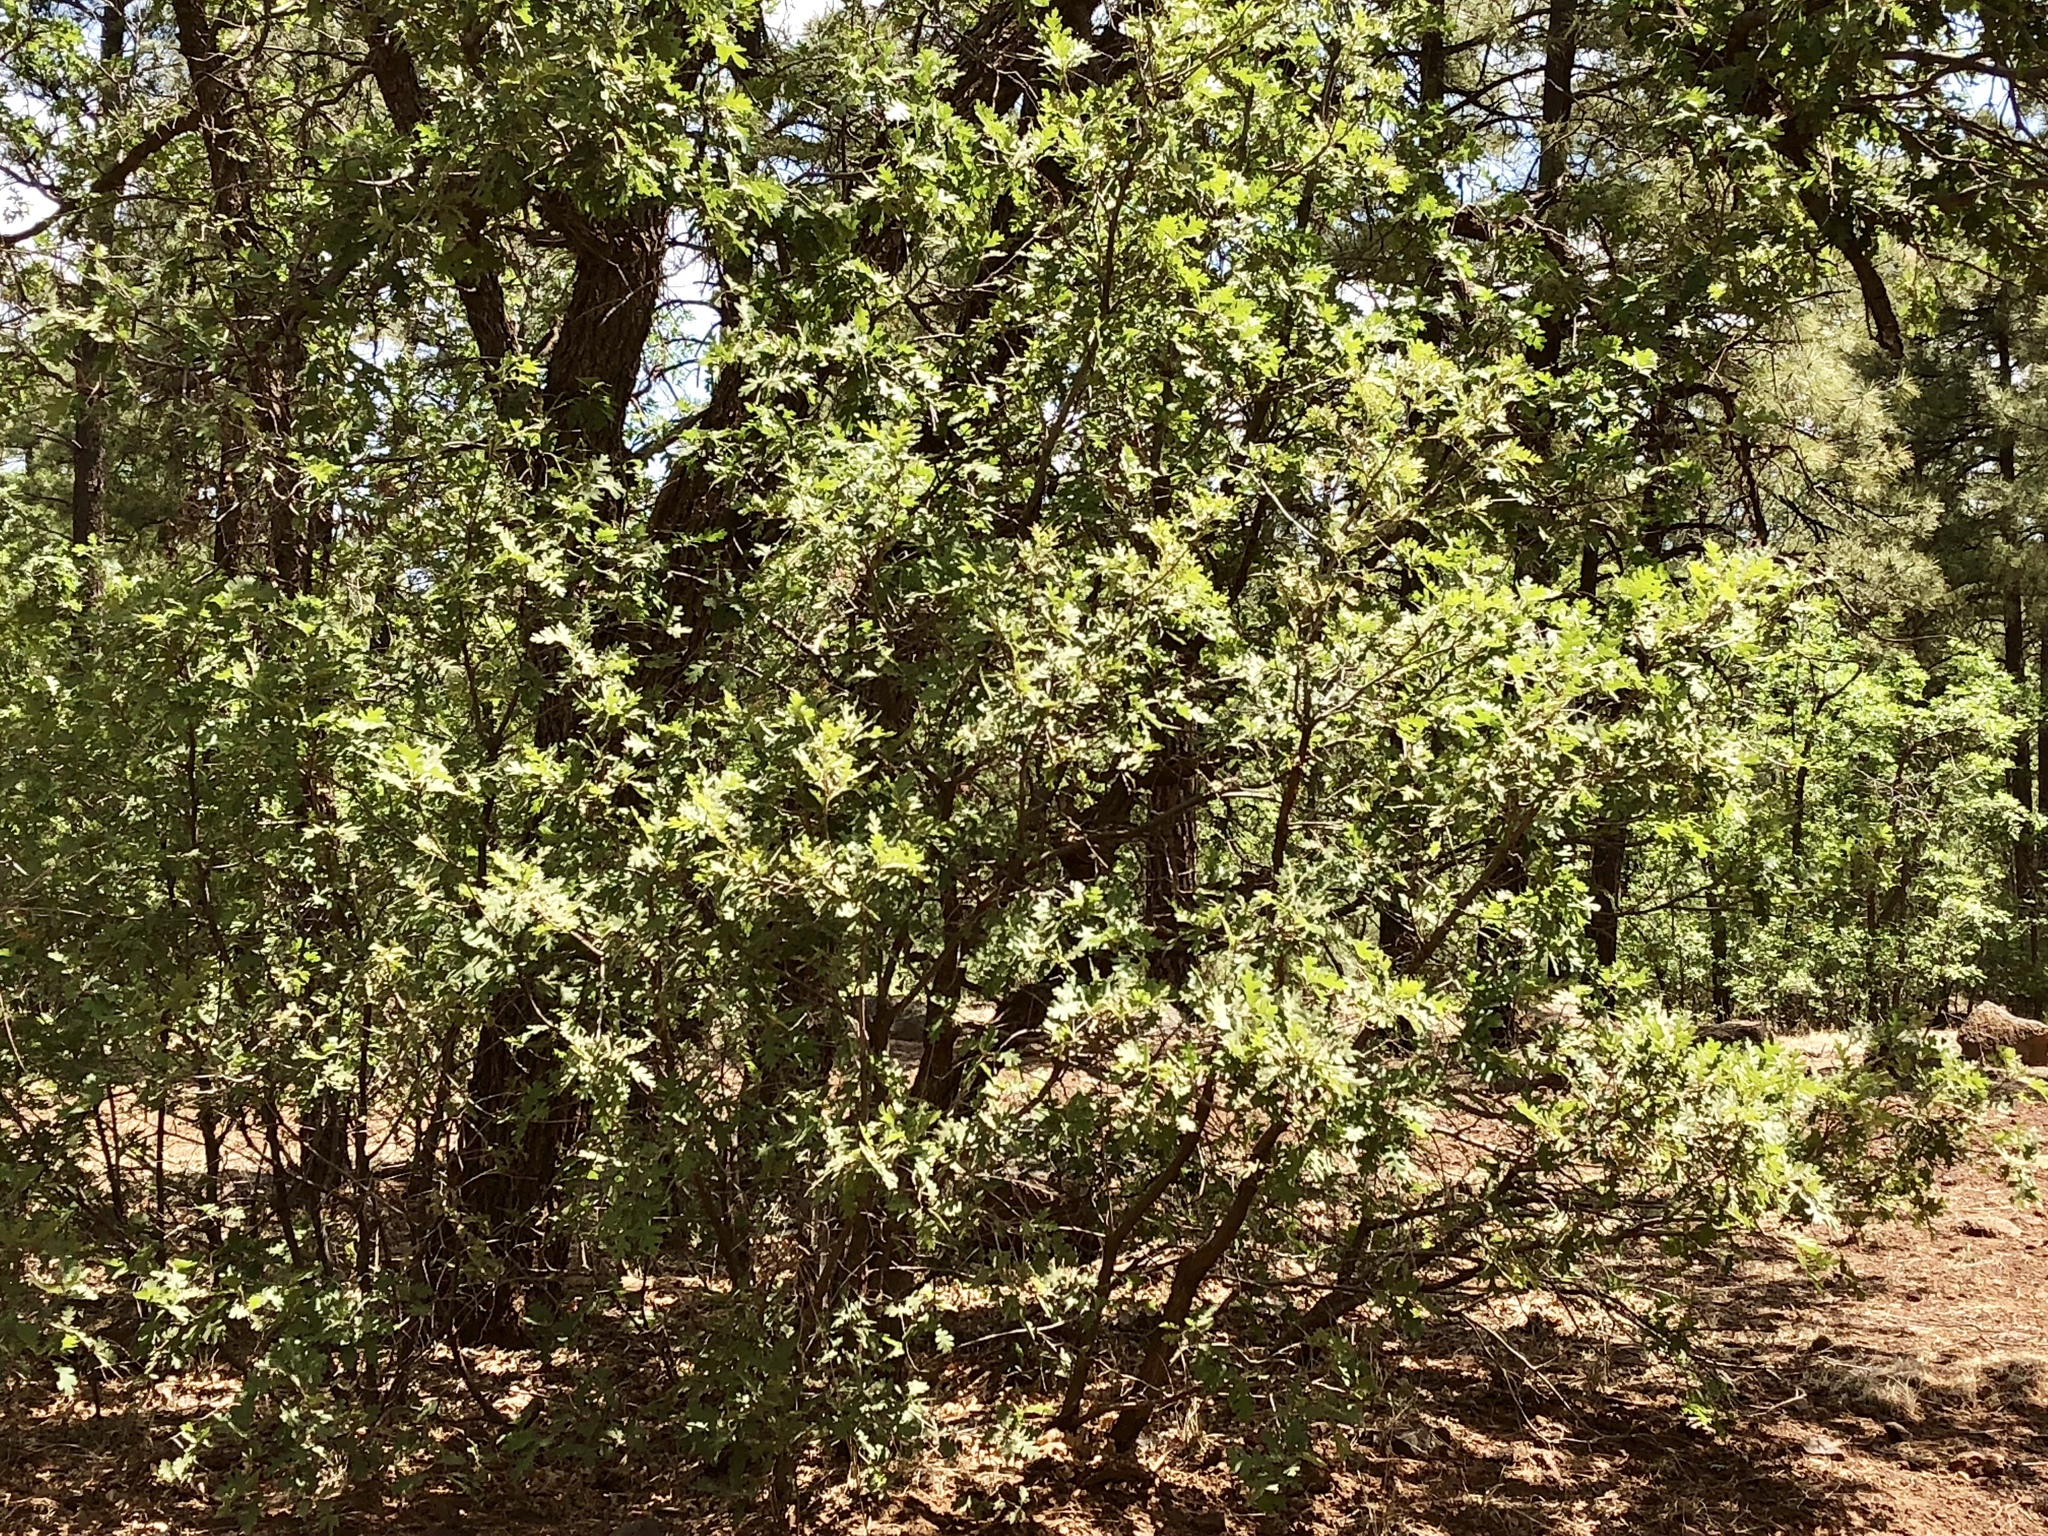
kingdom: Plantae
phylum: Tracheophyta
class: Magnoliopsida
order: Fagales
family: Fagaceae
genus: Quercus
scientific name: Quercus gambelii
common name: Gambel oak
